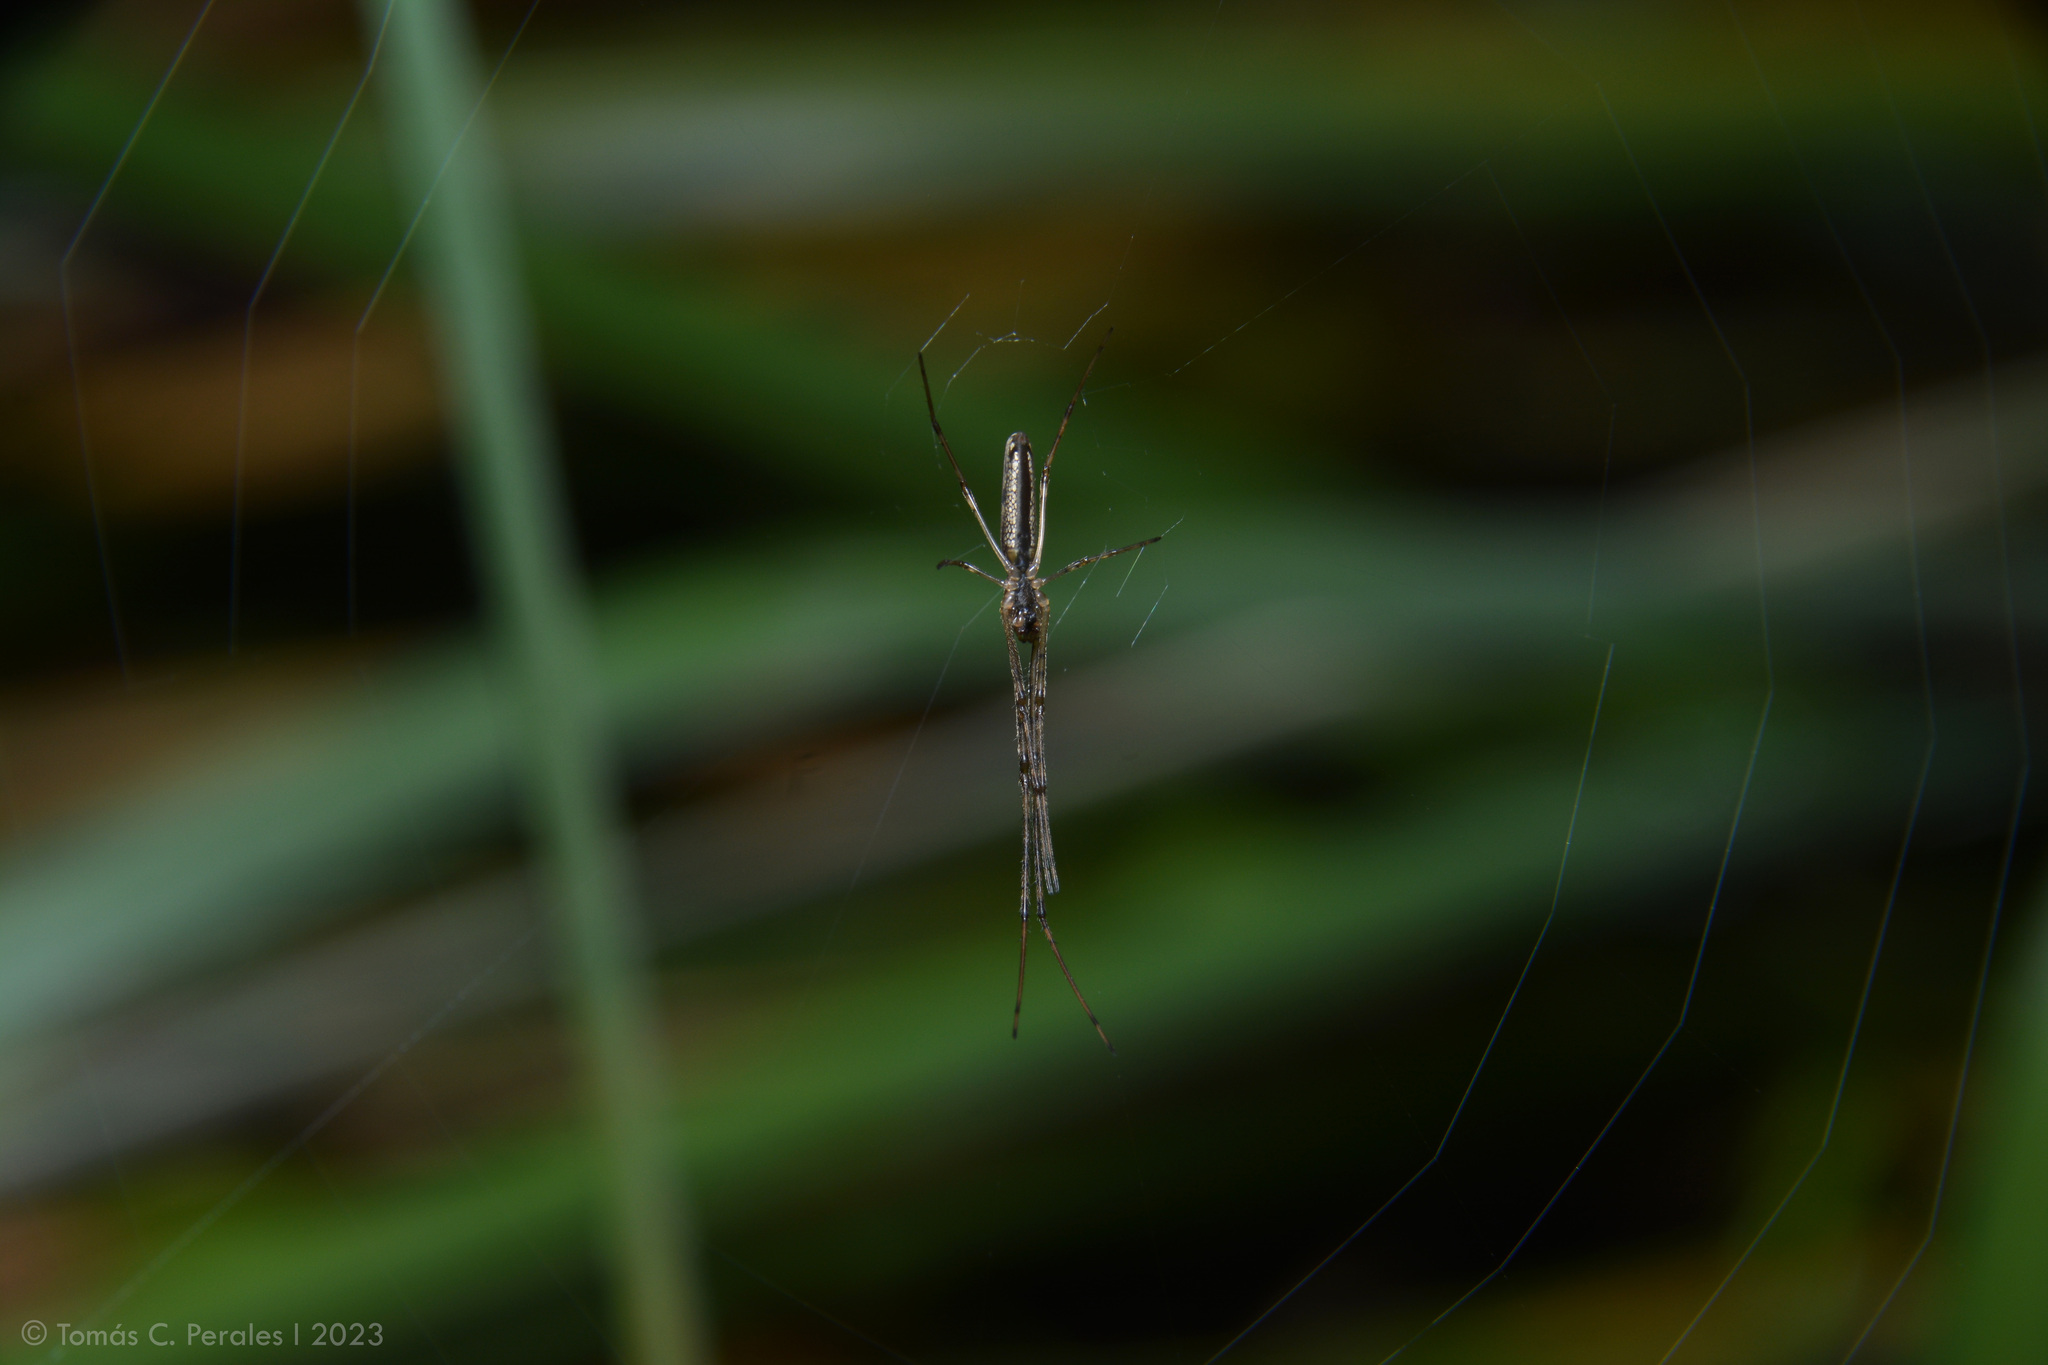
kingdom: Animalia
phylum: Arthropoda
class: Arachnida
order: Araneae
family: Tetragnathidae
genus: Tetragnatha
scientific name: Tetragnatha
